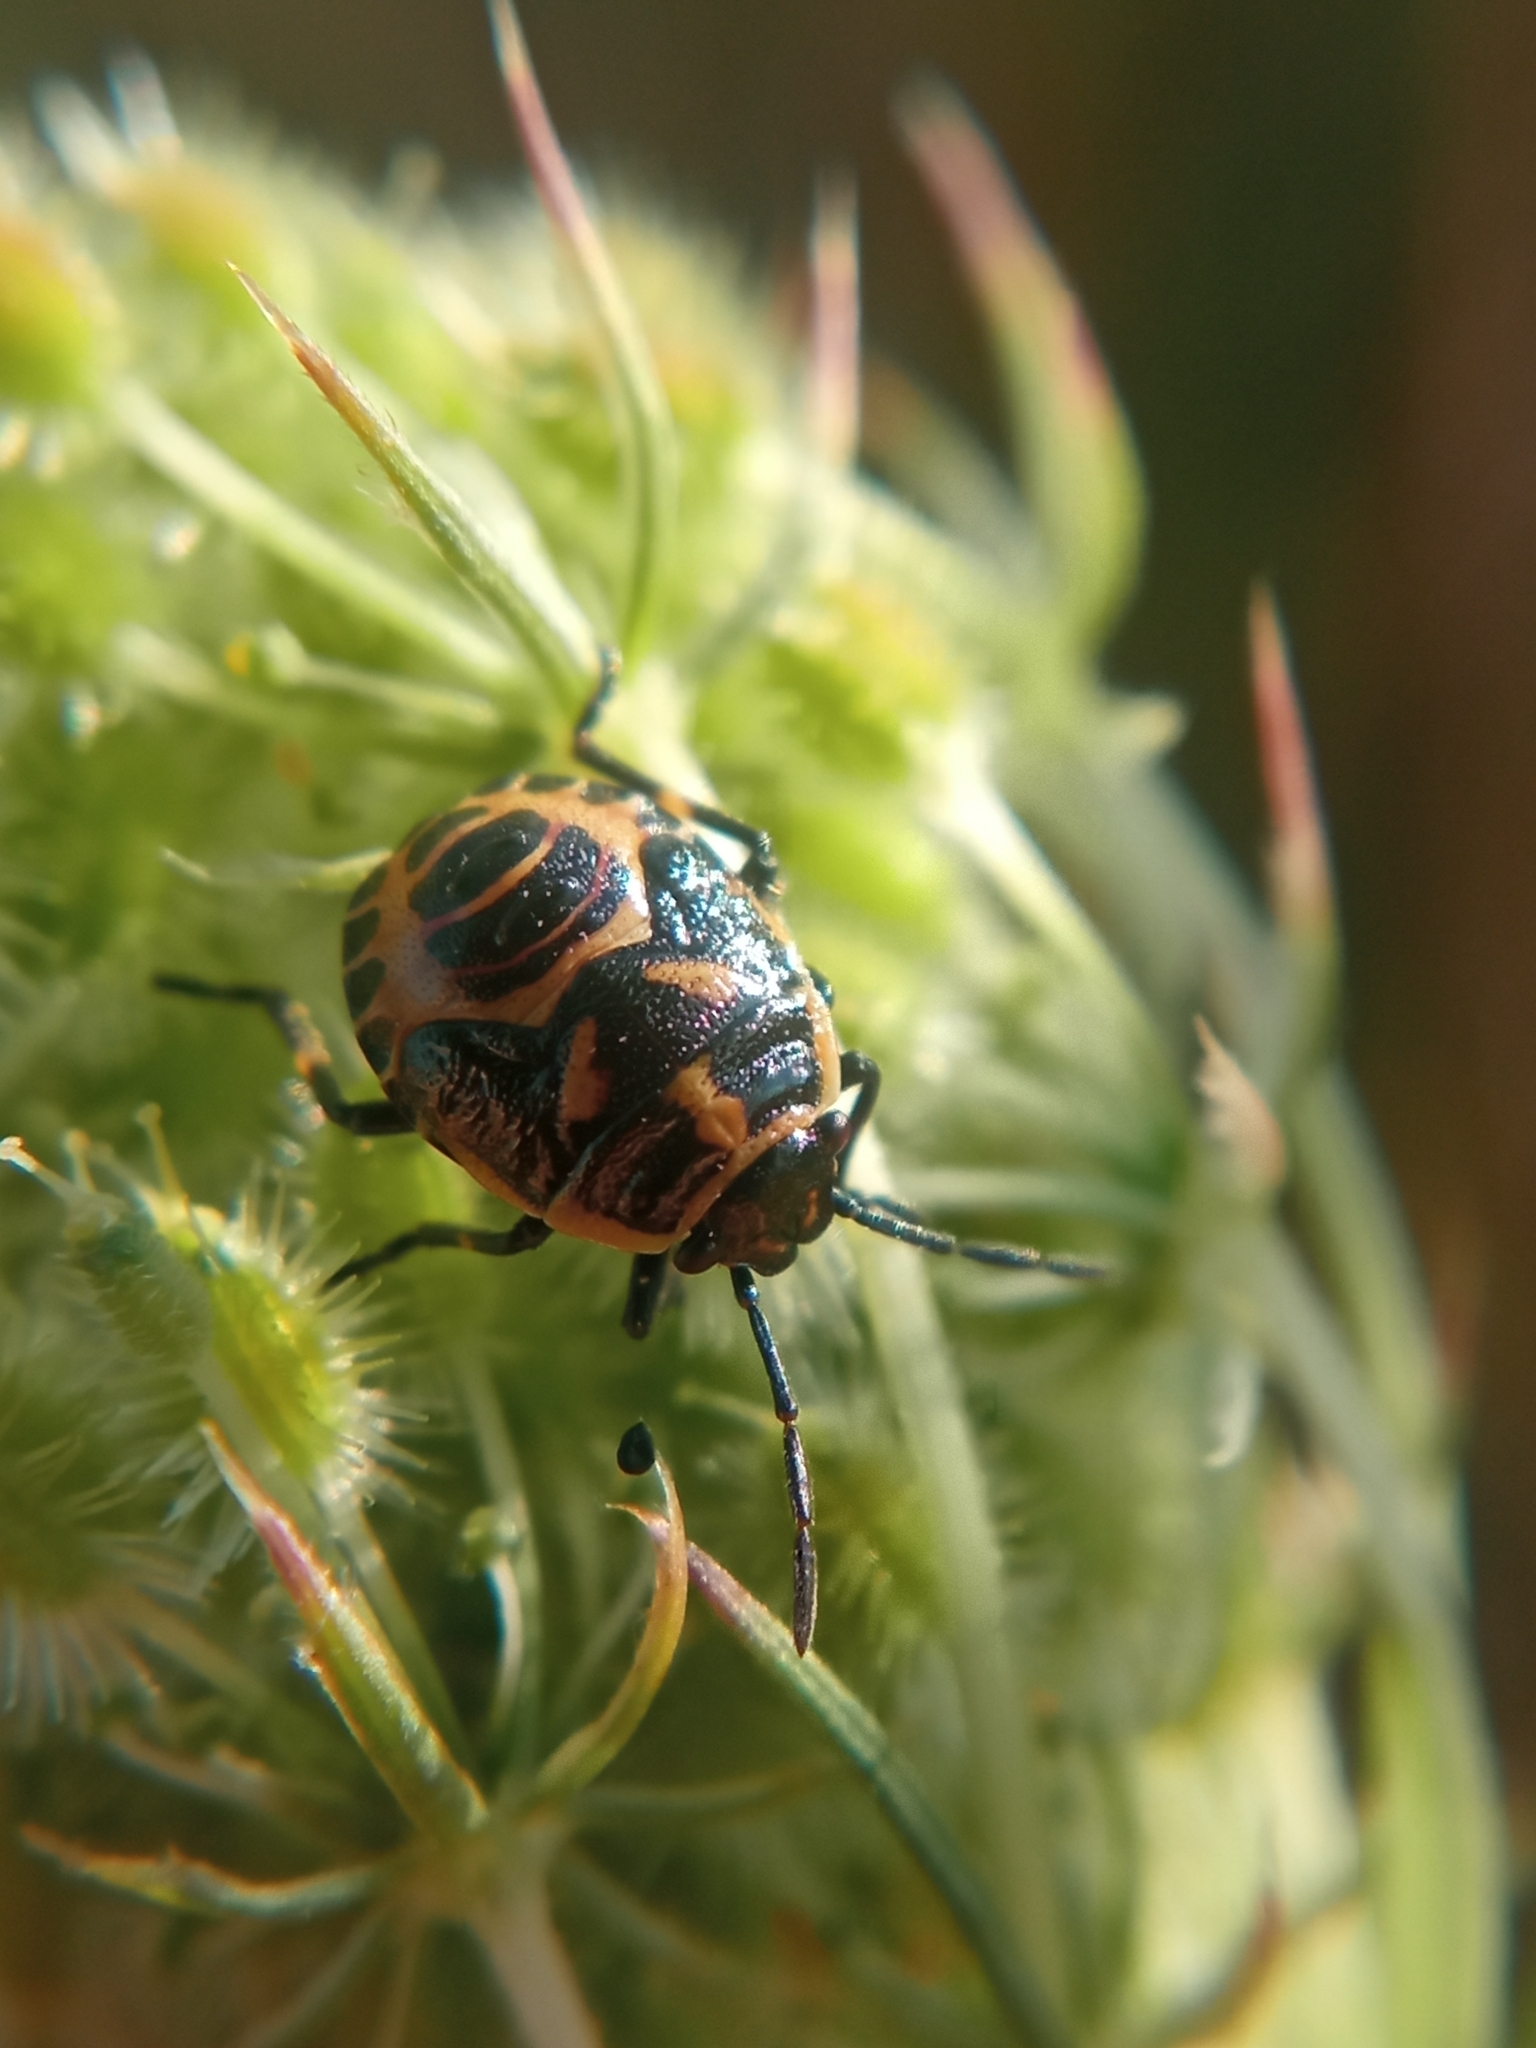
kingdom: Animalia
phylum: Arthropoda
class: Insecta
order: Hemiptera
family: Pentatomidae
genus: Eurydema
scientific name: Eurydema oleracea
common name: Cabbage bug
